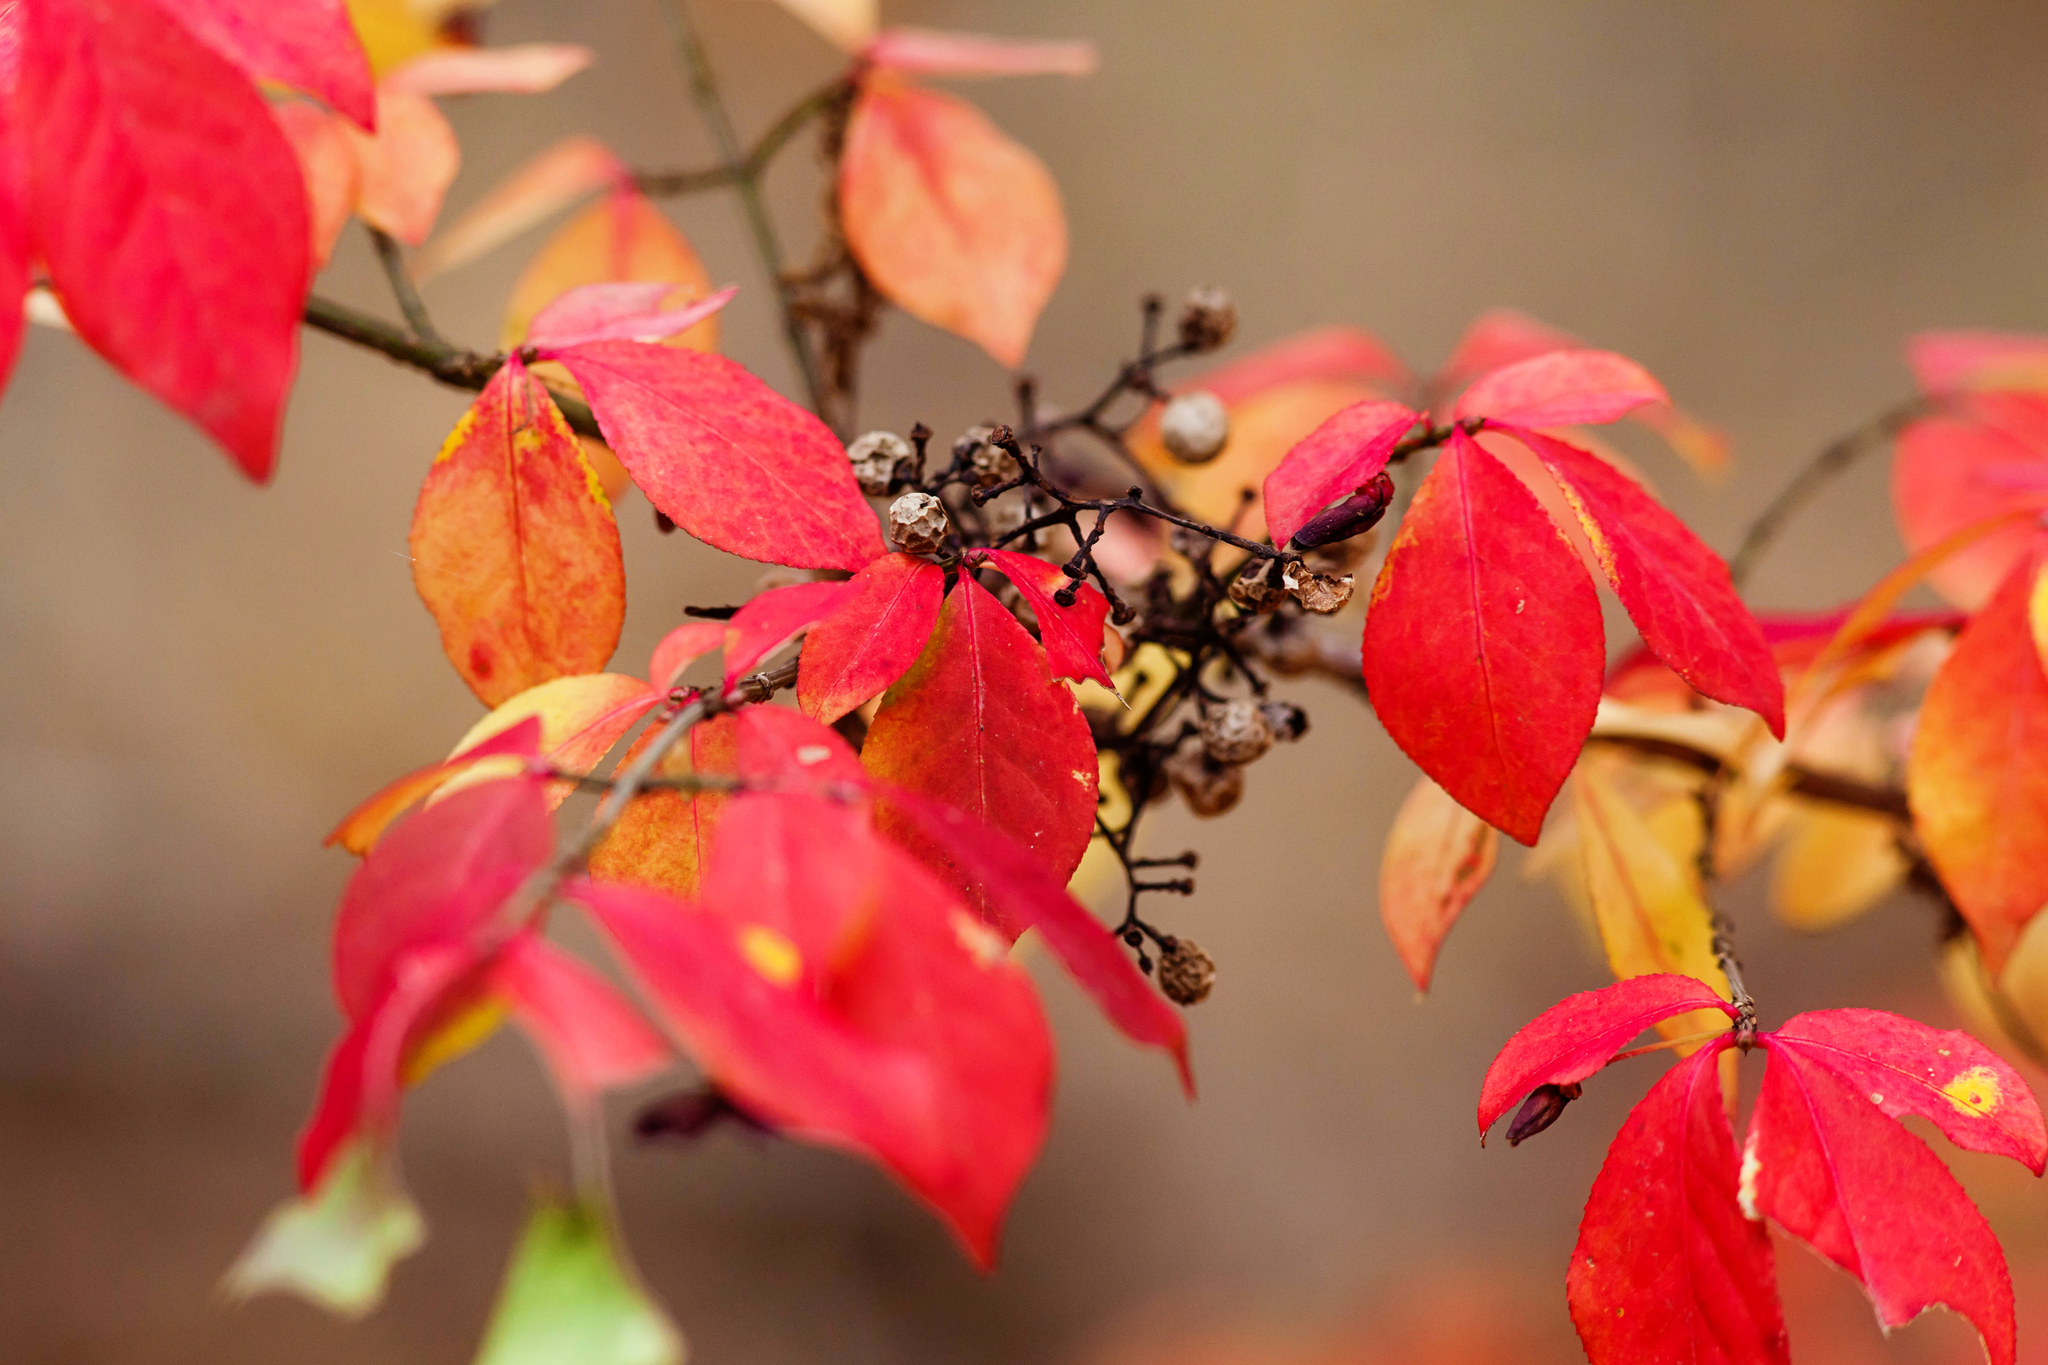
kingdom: Plantae
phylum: Tracheophyta
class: Magnoliopsida
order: Celastrales
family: Celastraceae
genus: Euonymus
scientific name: Euonymus alatus
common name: Winged euonymus
